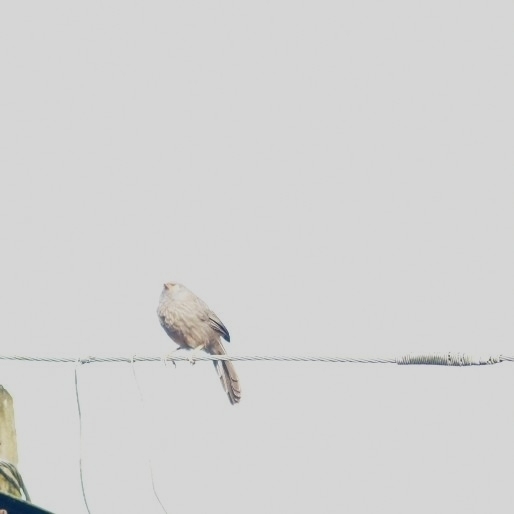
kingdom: Animalia
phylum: Chordata
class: Aves
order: Passeriformes
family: Leiothrichidae
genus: Turdoides
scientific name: Turdoides striata
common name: Jungle babbler
